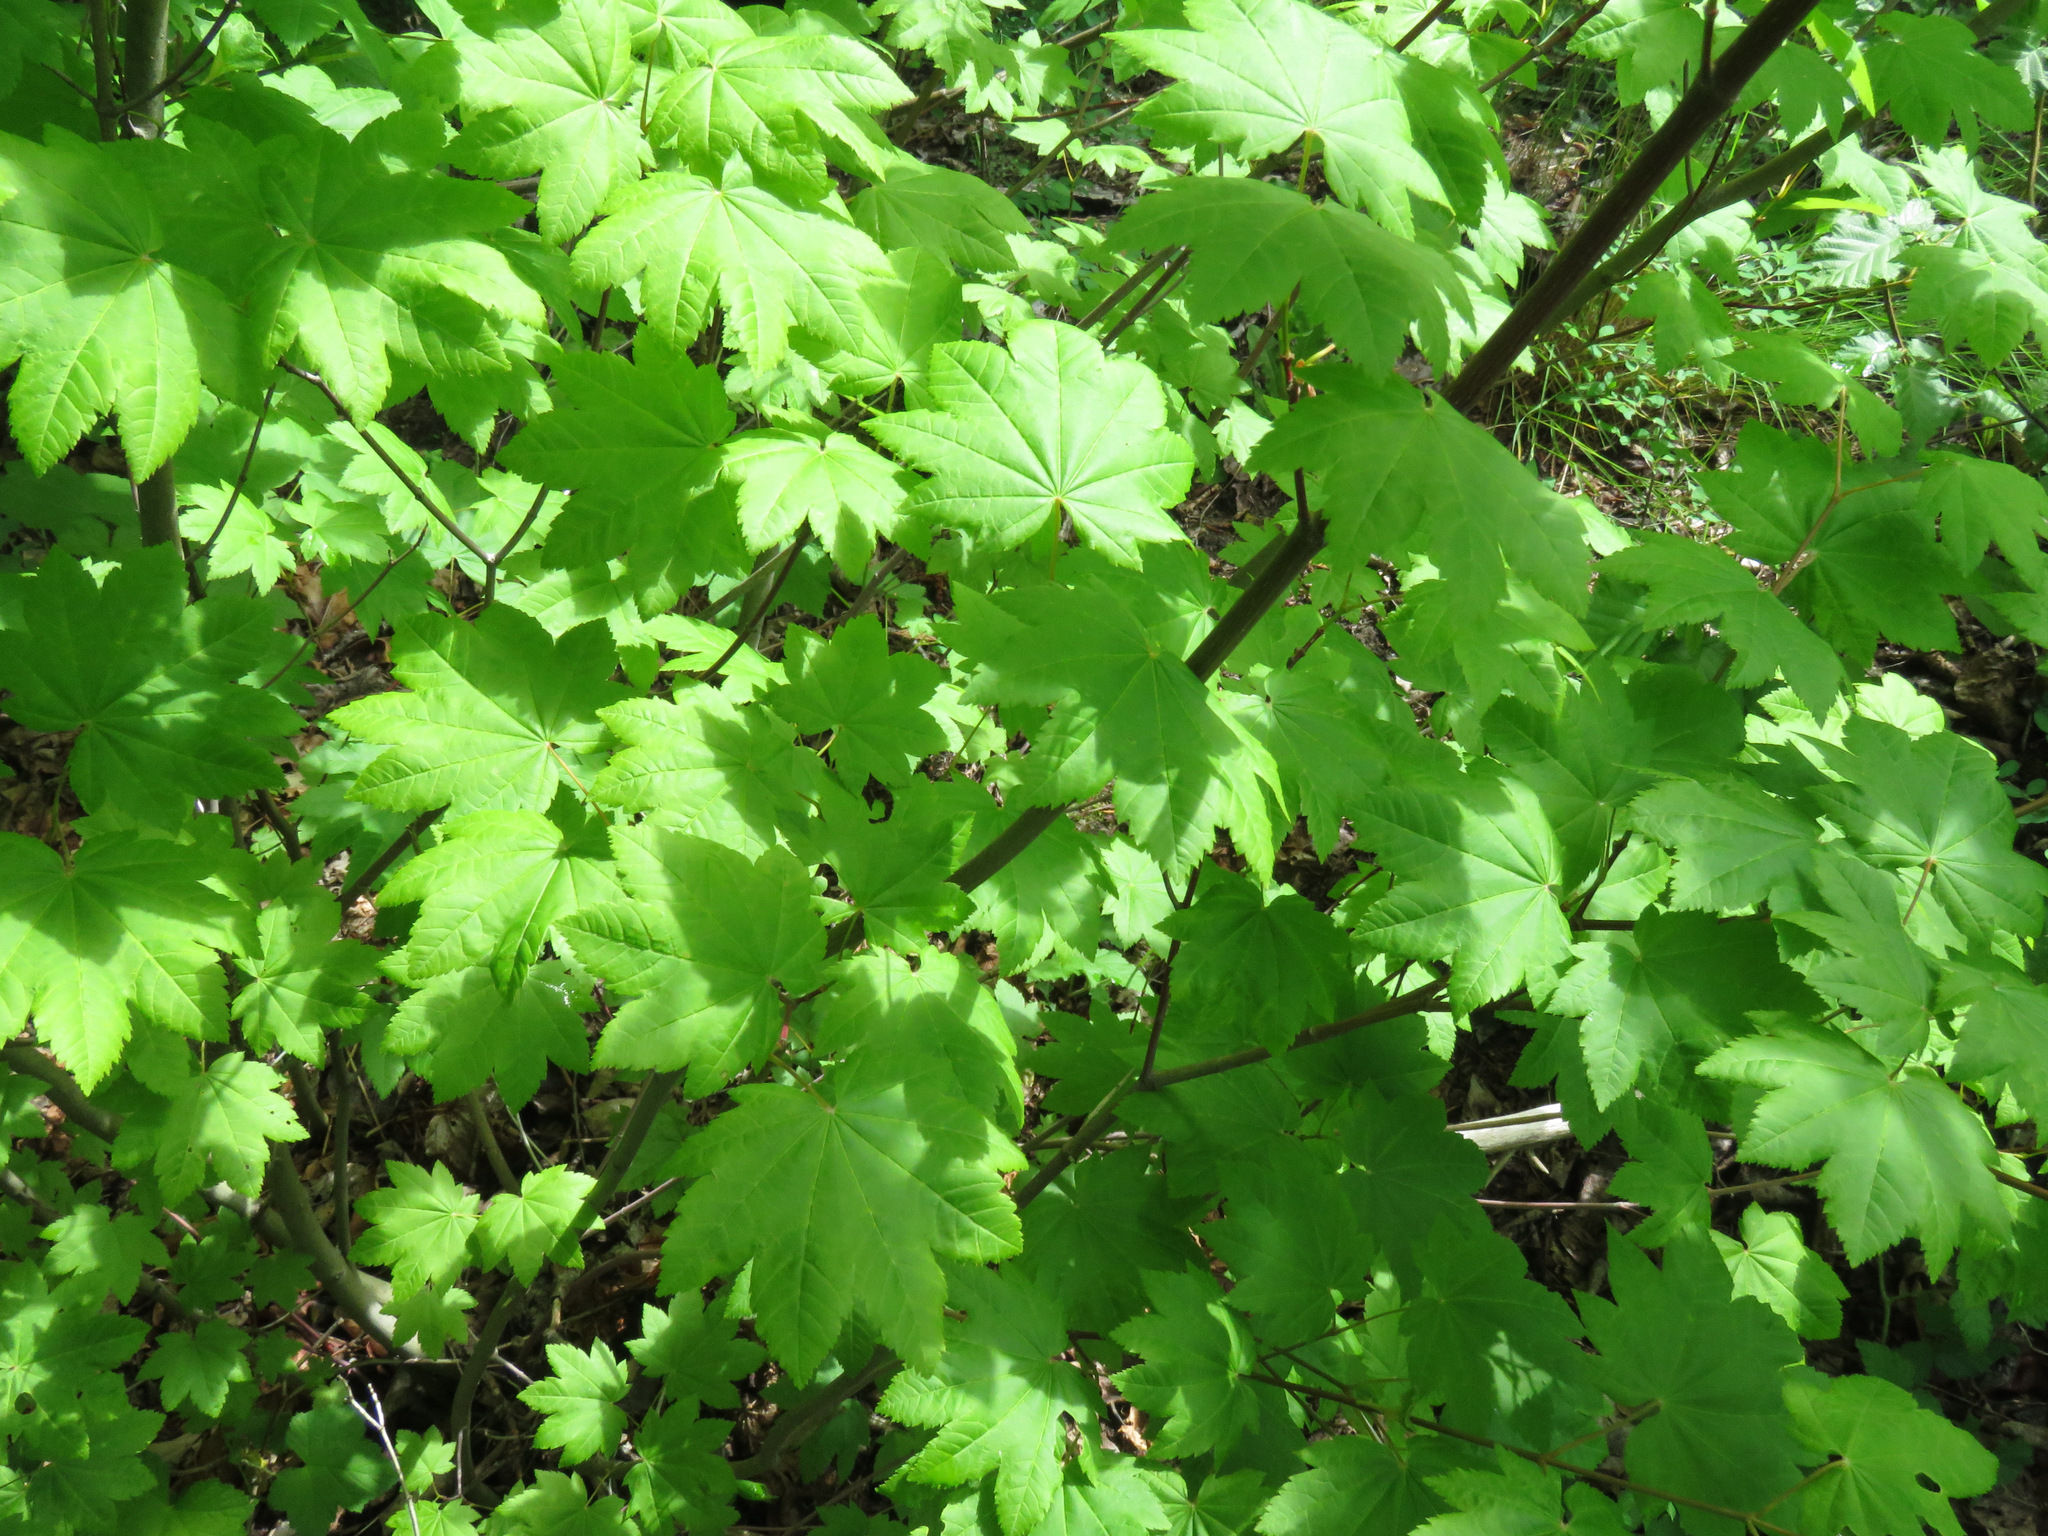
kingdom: Plantae
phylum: Tracheophyta
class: Magnoliopsida
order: Sapindales
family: Sapindaceae
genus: Acer
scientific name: Acer circinatum
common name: Vine maple
